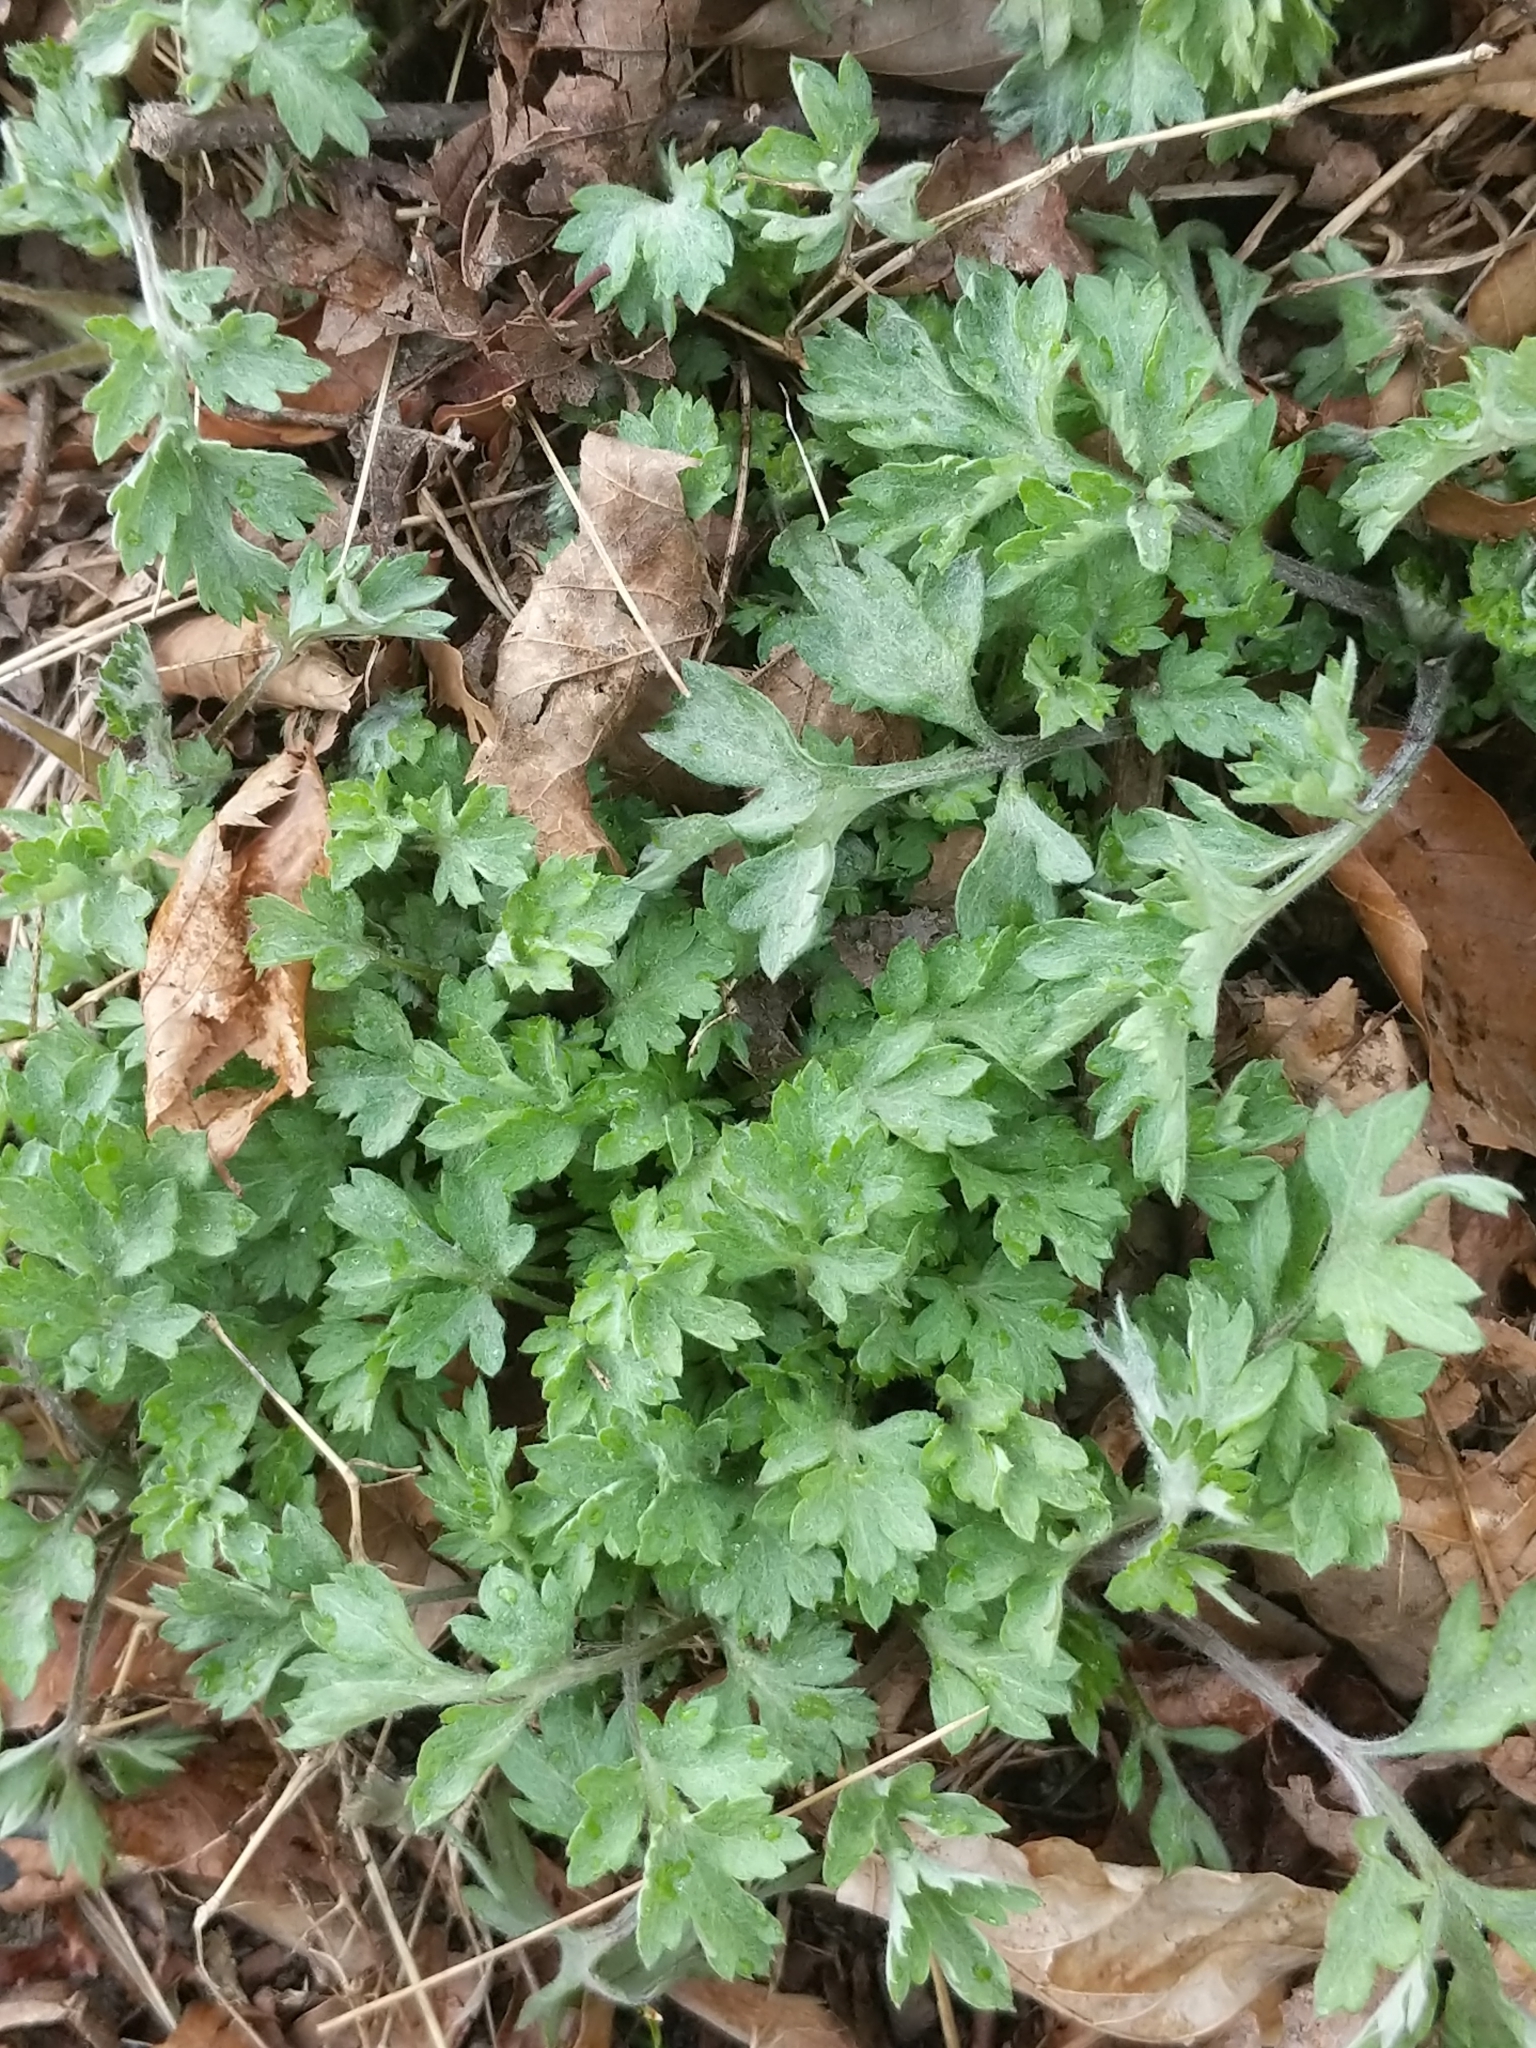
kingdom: Plantae
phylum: Tracheophyta
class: Magnoliopsida
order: Asterales
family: Asteraceae
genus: Artemisia
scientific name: Artemisia vulgaris
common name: Mugwort
